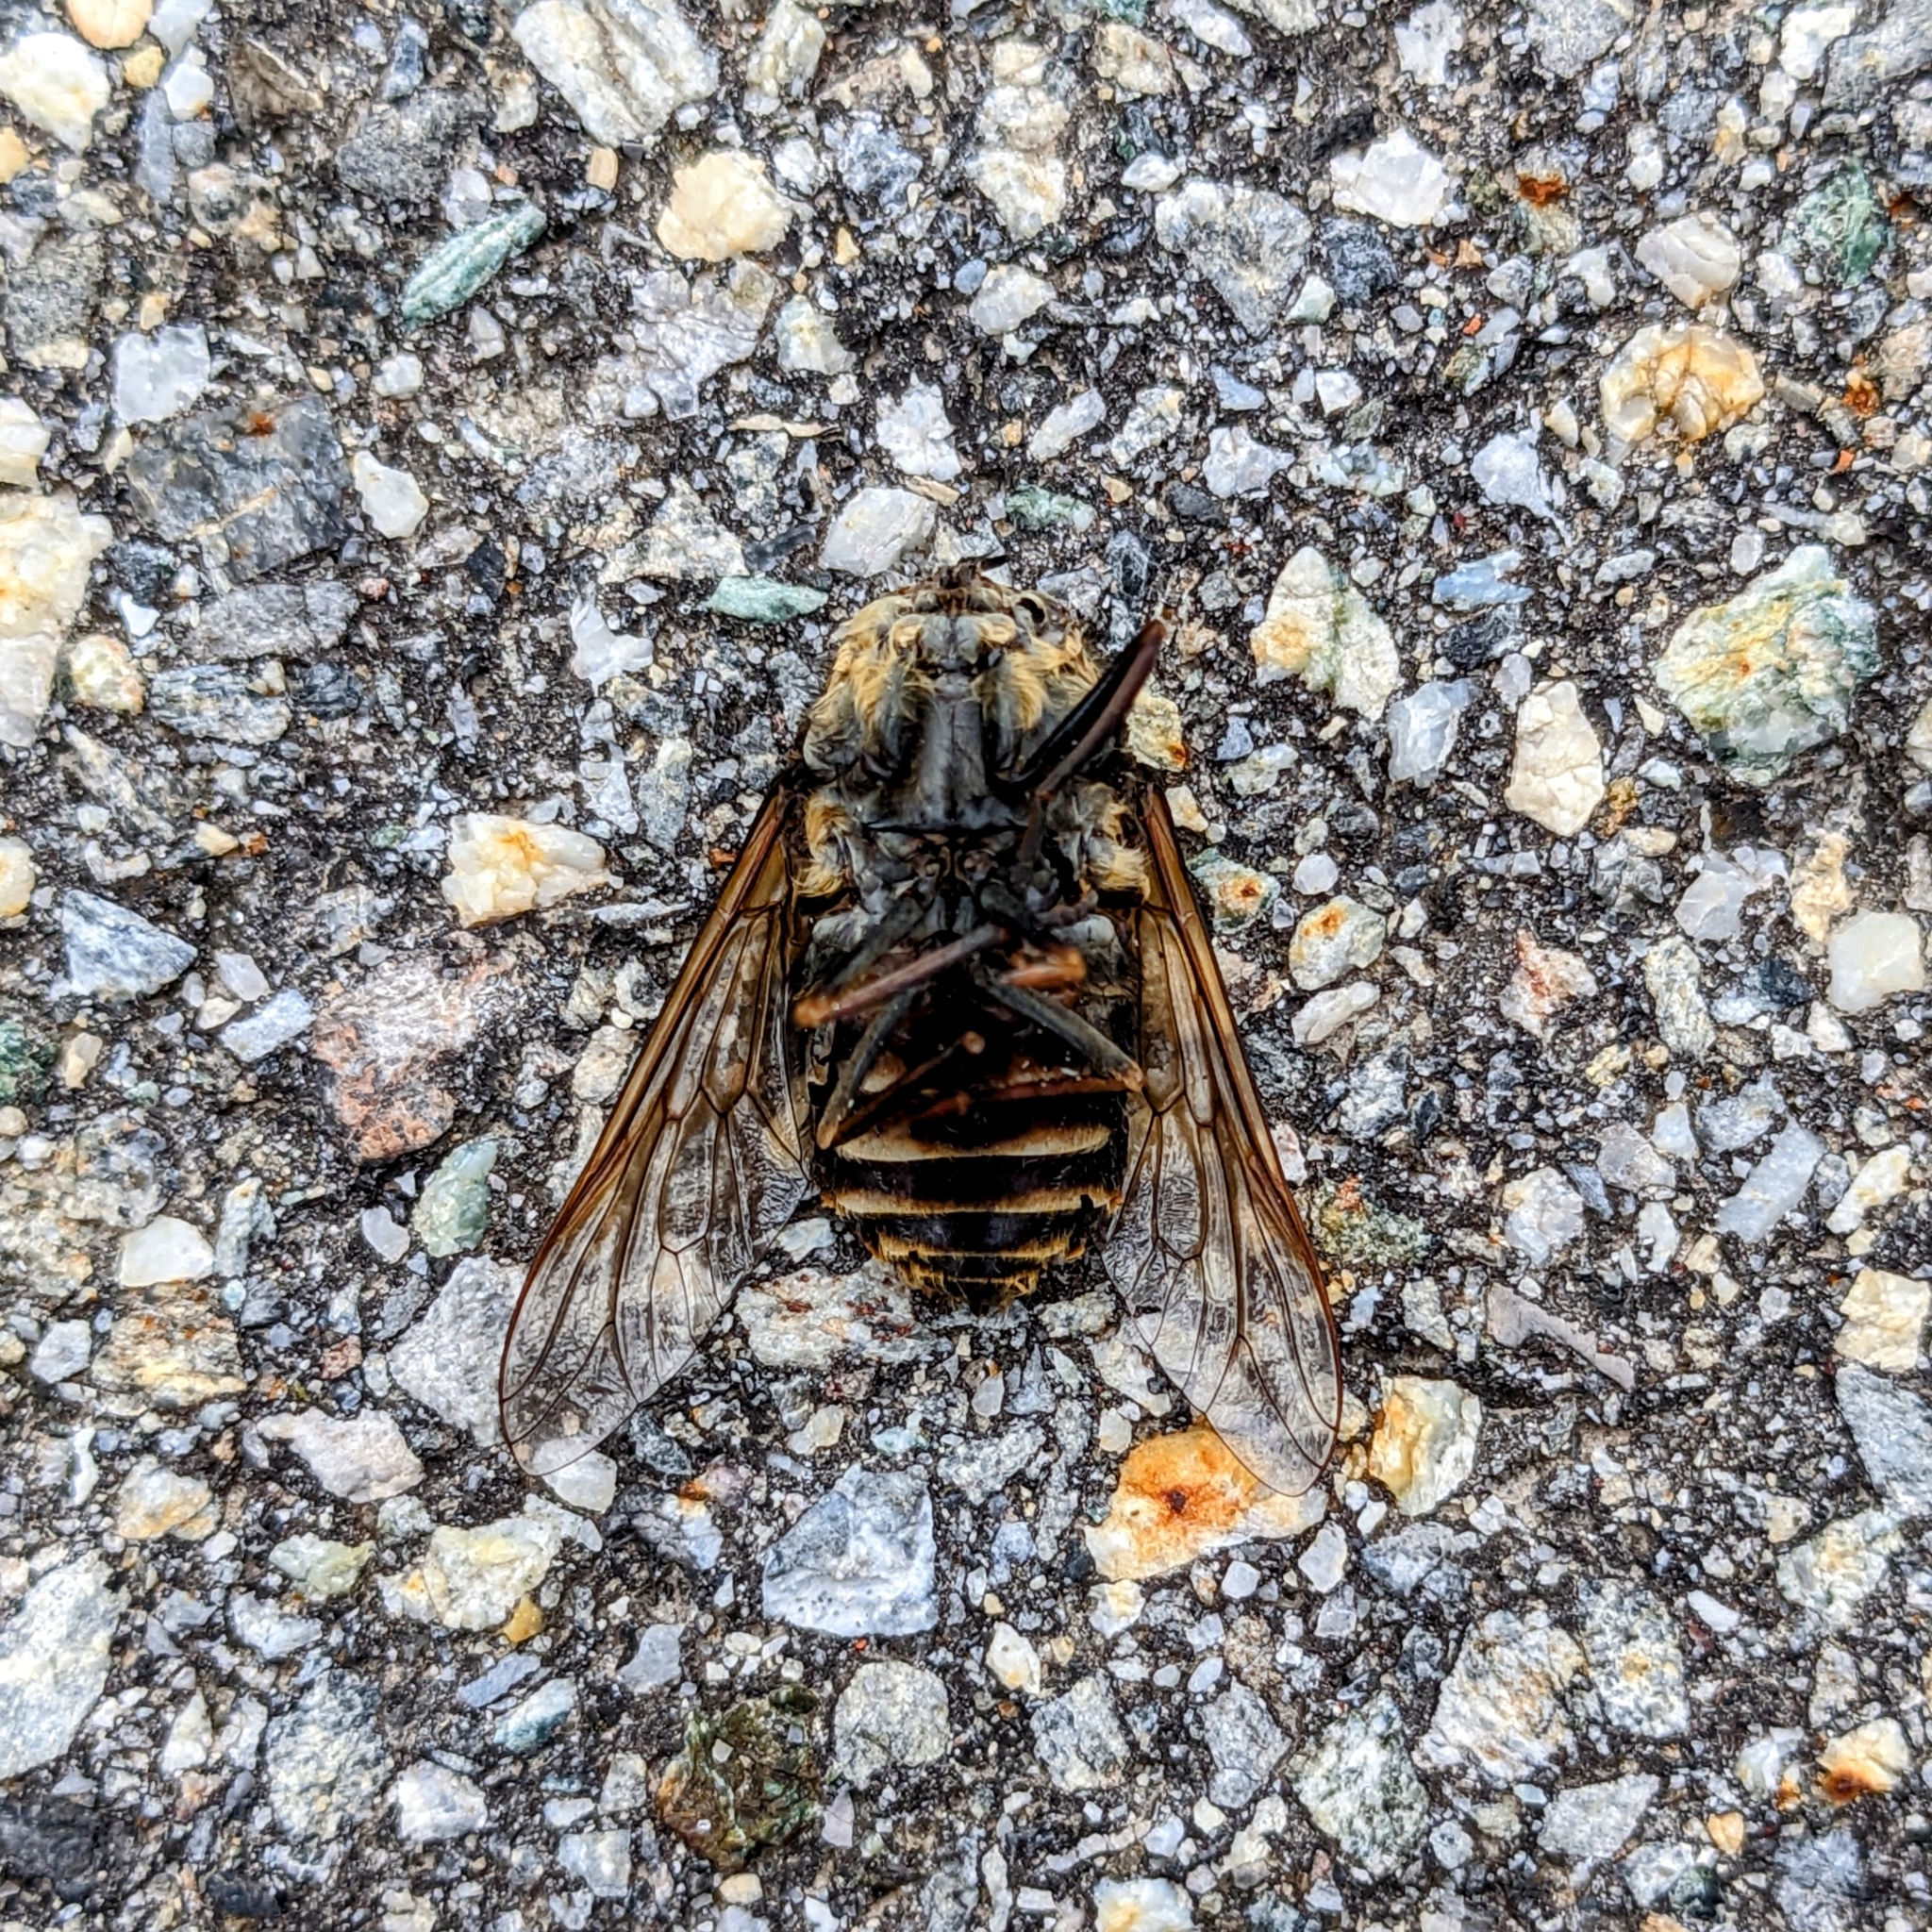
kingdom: Animalia
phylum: Arthropoda
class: Insecta
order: Diptera
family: Tabanidae
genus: Tabanus
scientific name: Tabanus sudeticus
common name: Dark giant horsefly
